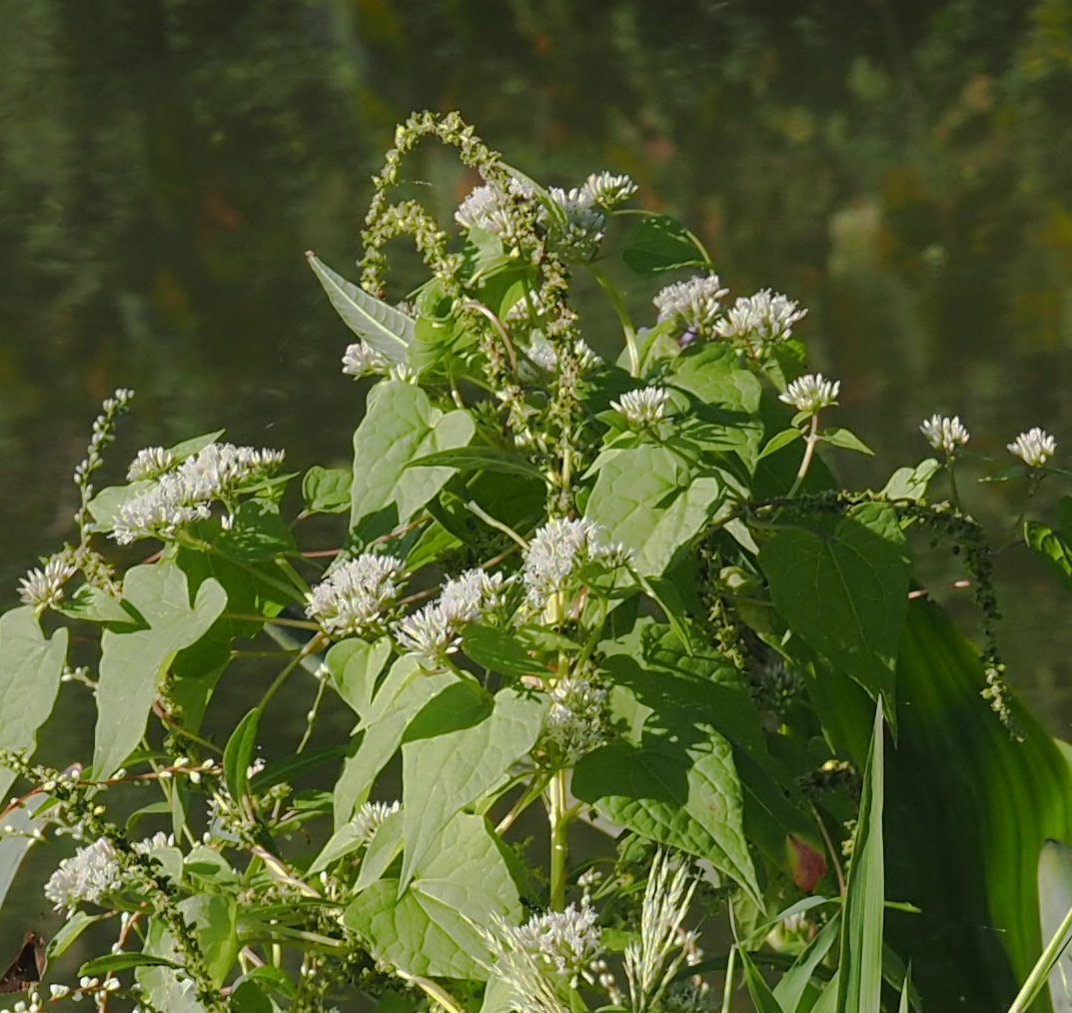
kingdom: Plantae
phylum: Tracheophyta
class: Magnoliopsida
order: Asterales
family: Asteraceae
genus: Mikania
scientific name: Mikania scandens
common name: Climbing hempvine
